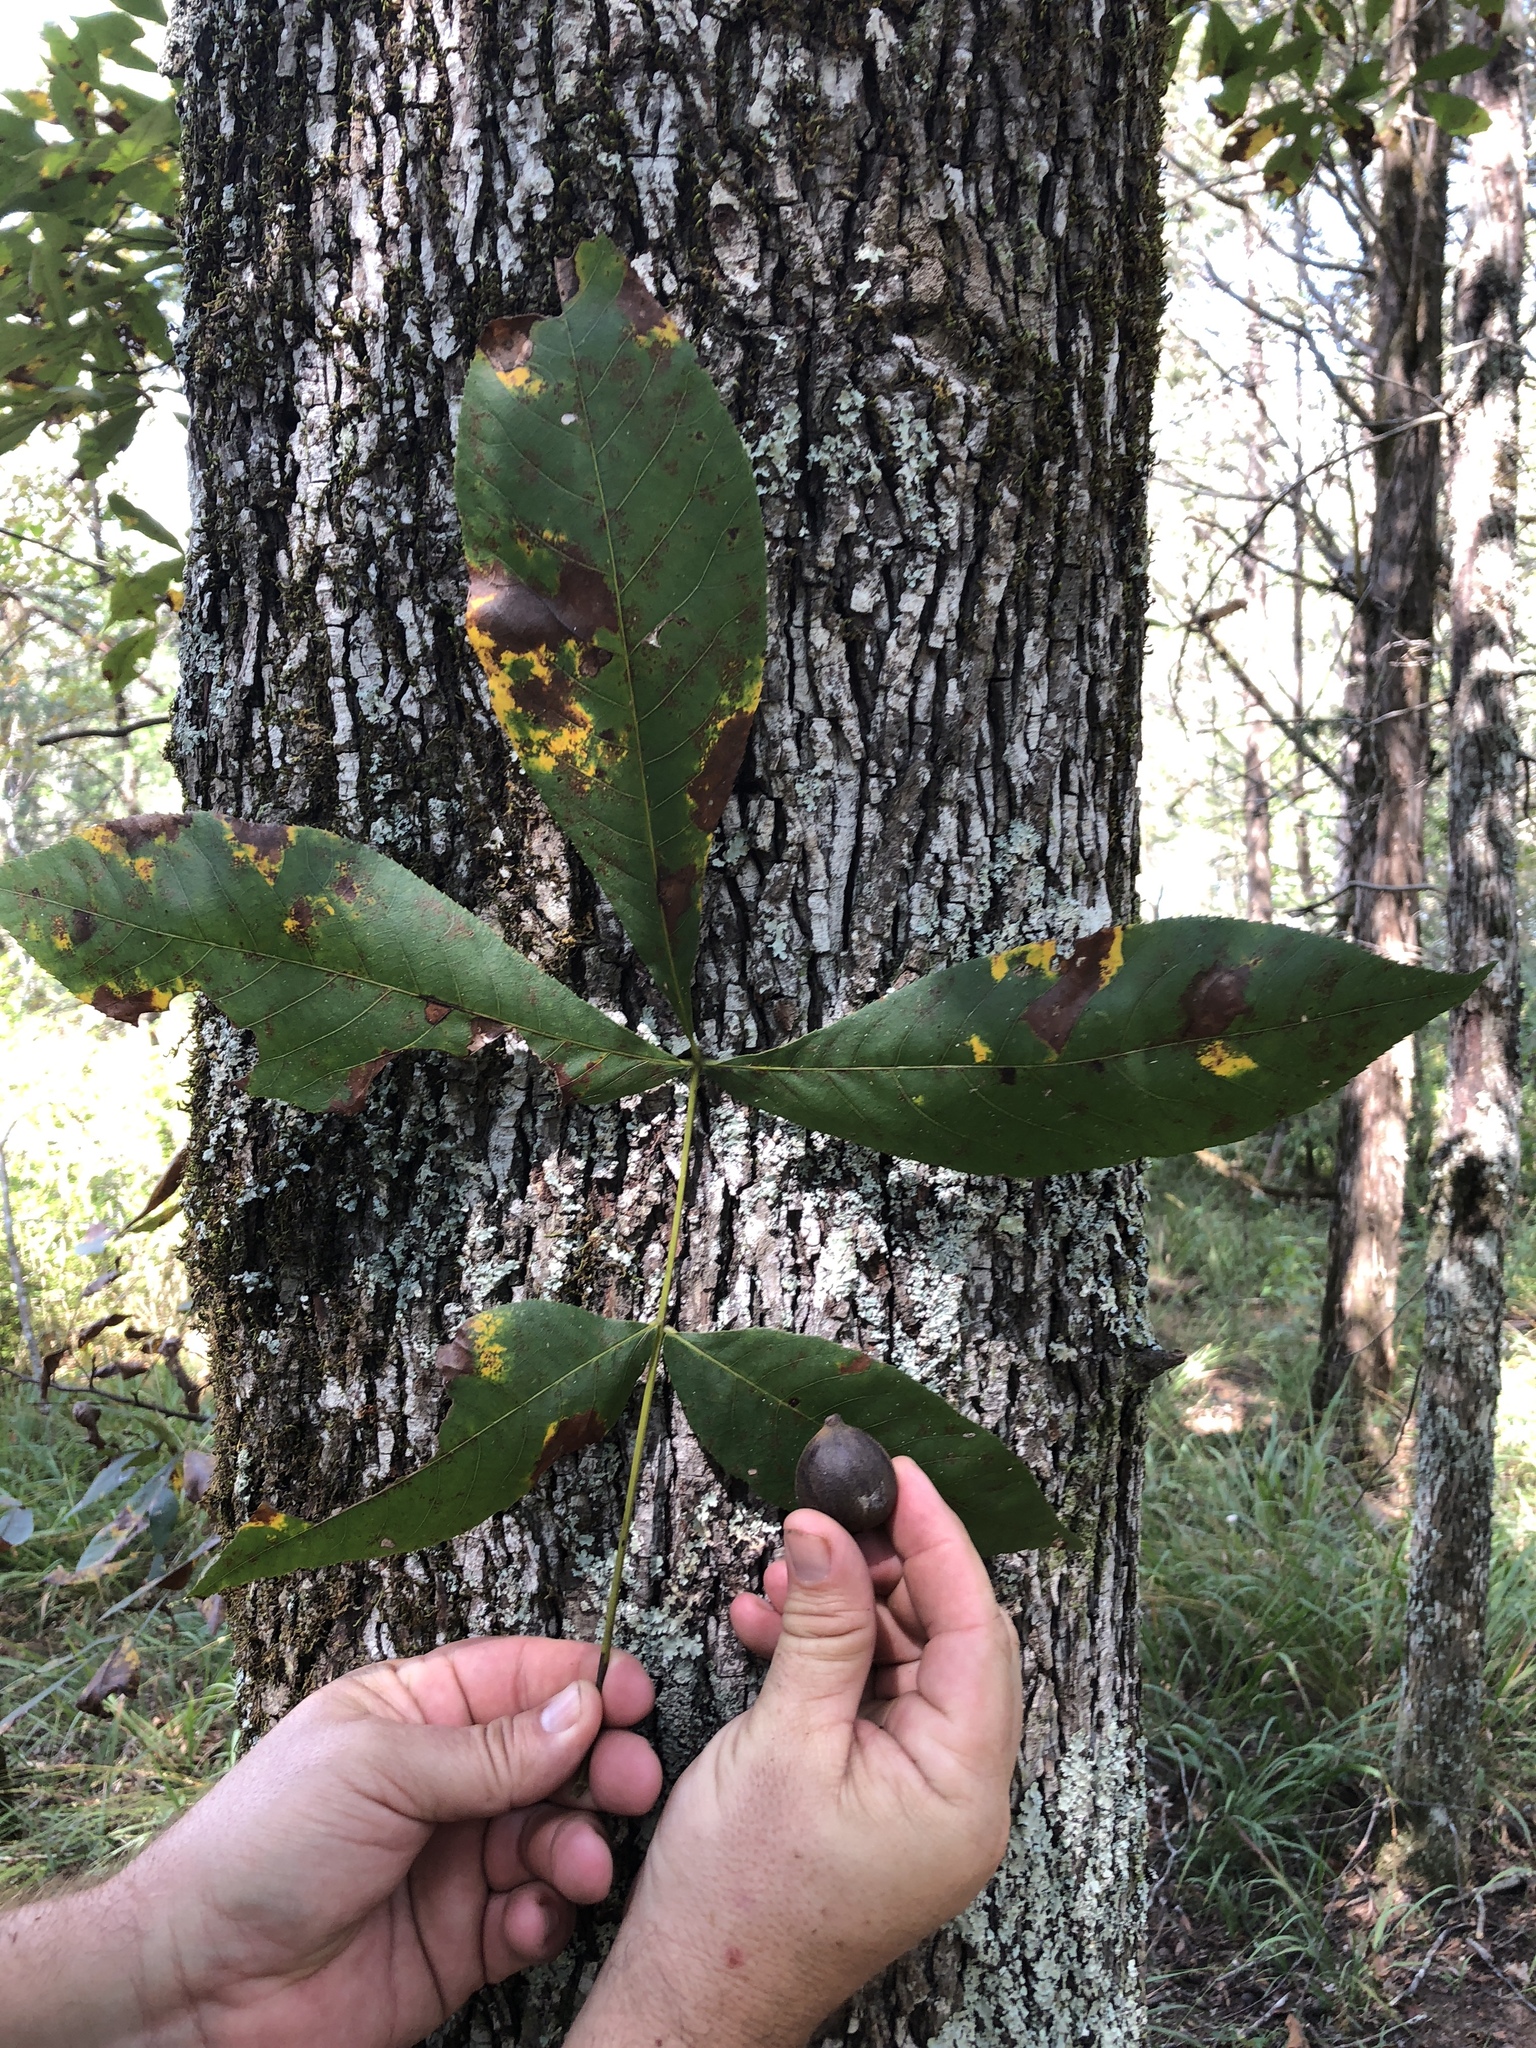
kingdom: Plantae
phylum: Tracheophyta
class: Magnoliopsida
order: Fagales
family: Juglandaceae
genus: Carya
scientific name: Carya glabra
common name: Pignut hickory
